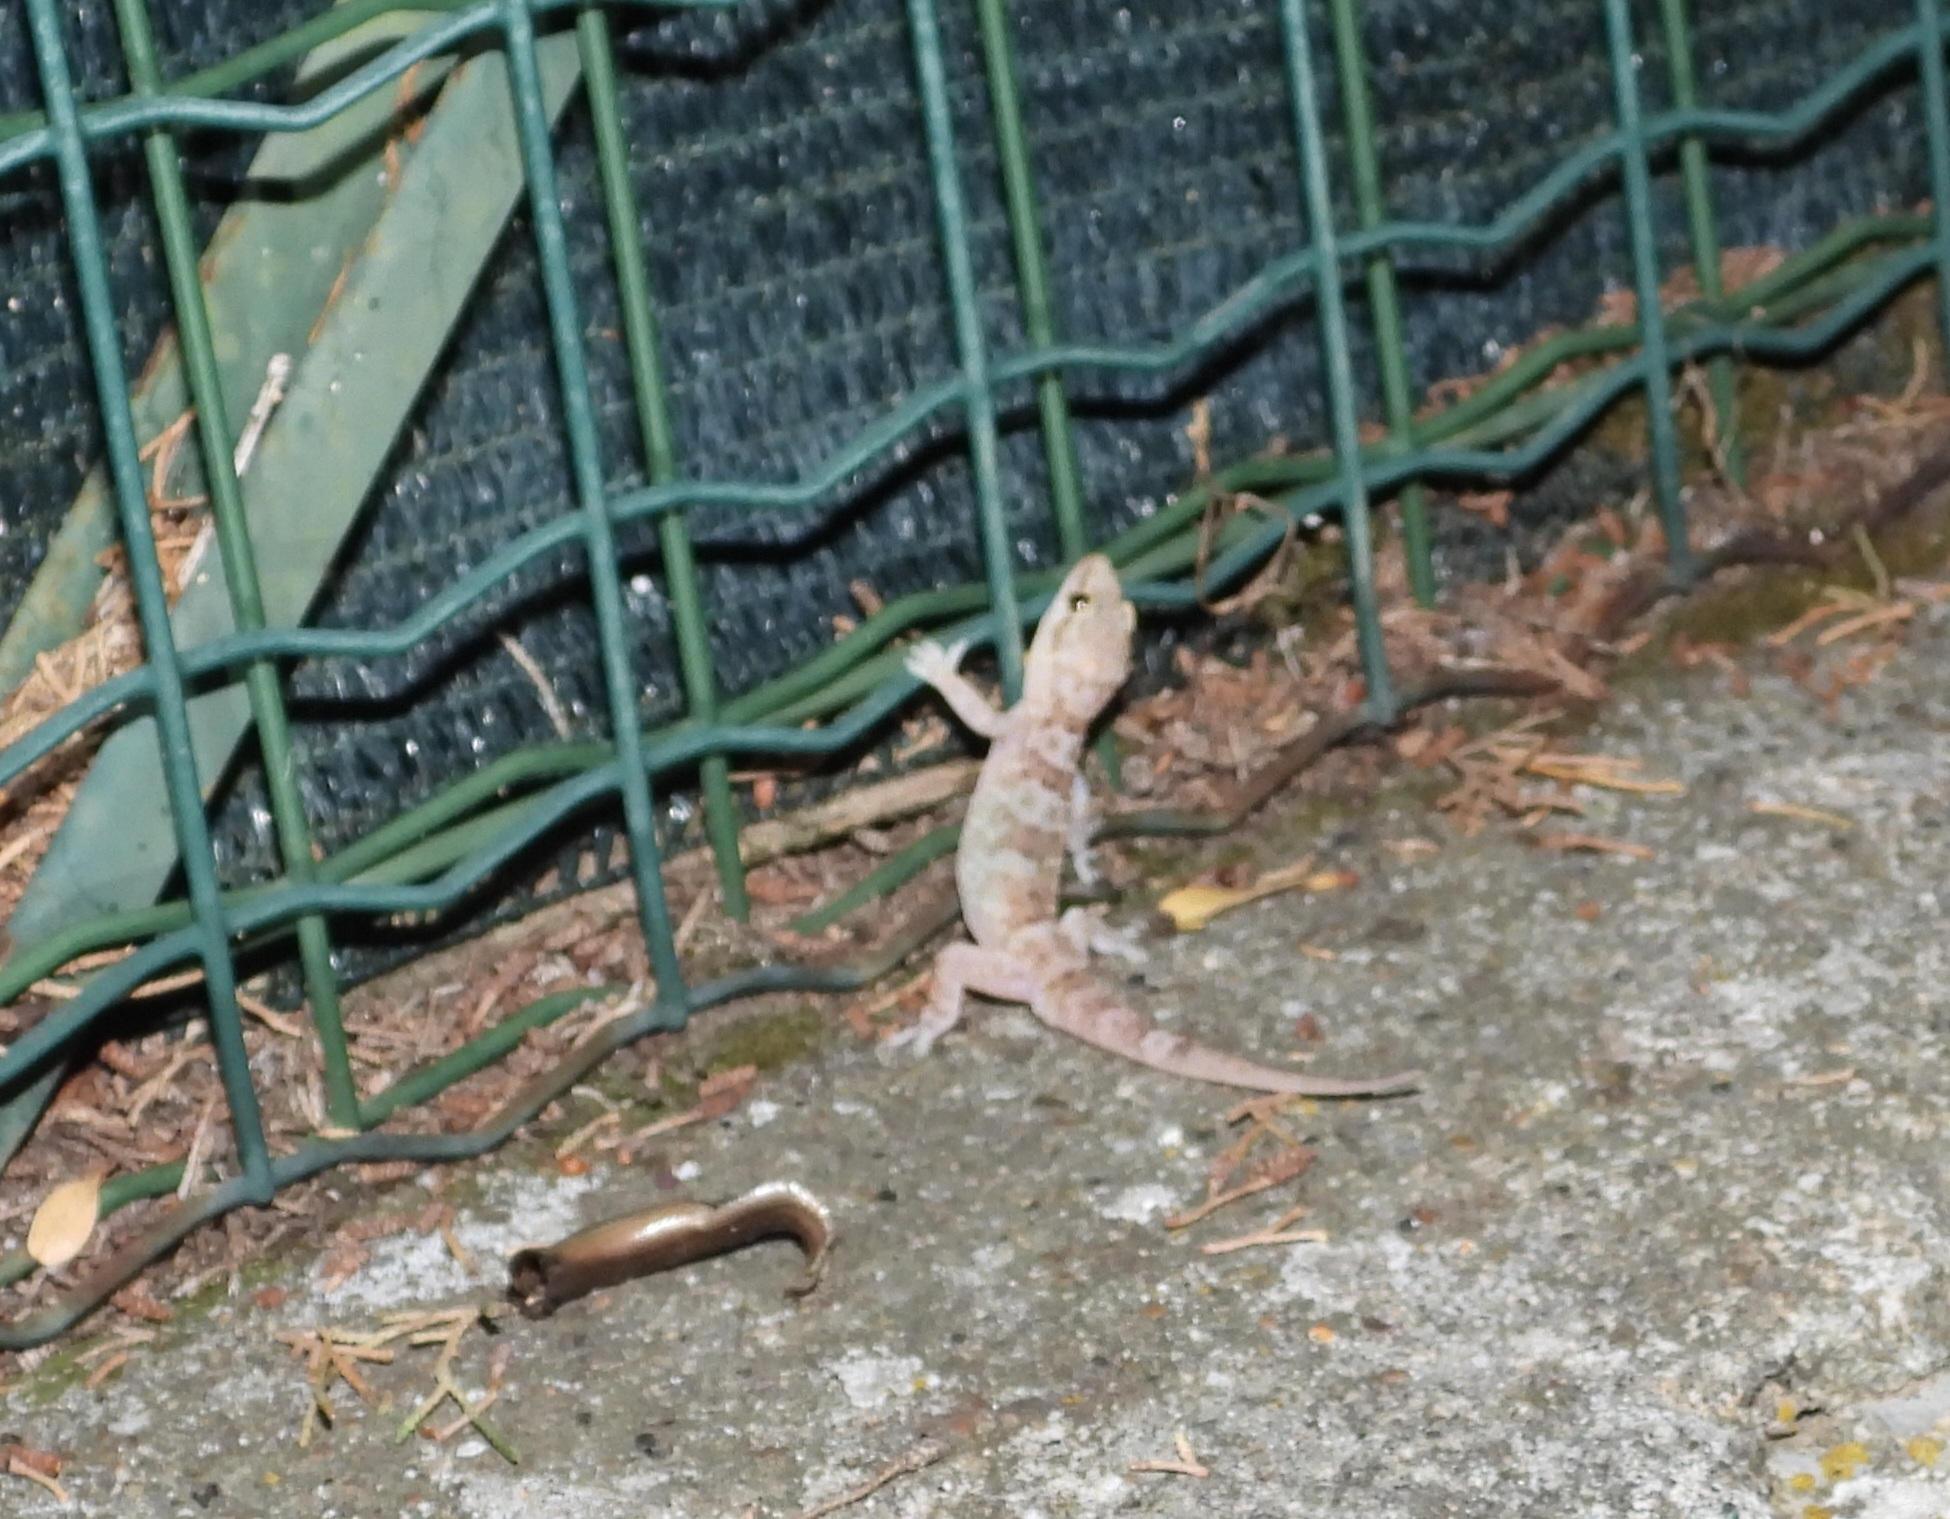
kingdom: Animalia
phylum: Chordata
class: Squamata
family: Gekkonidae
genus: Hemidactylus
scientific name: Hemidactylus turcicus
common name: Turkish gecko
